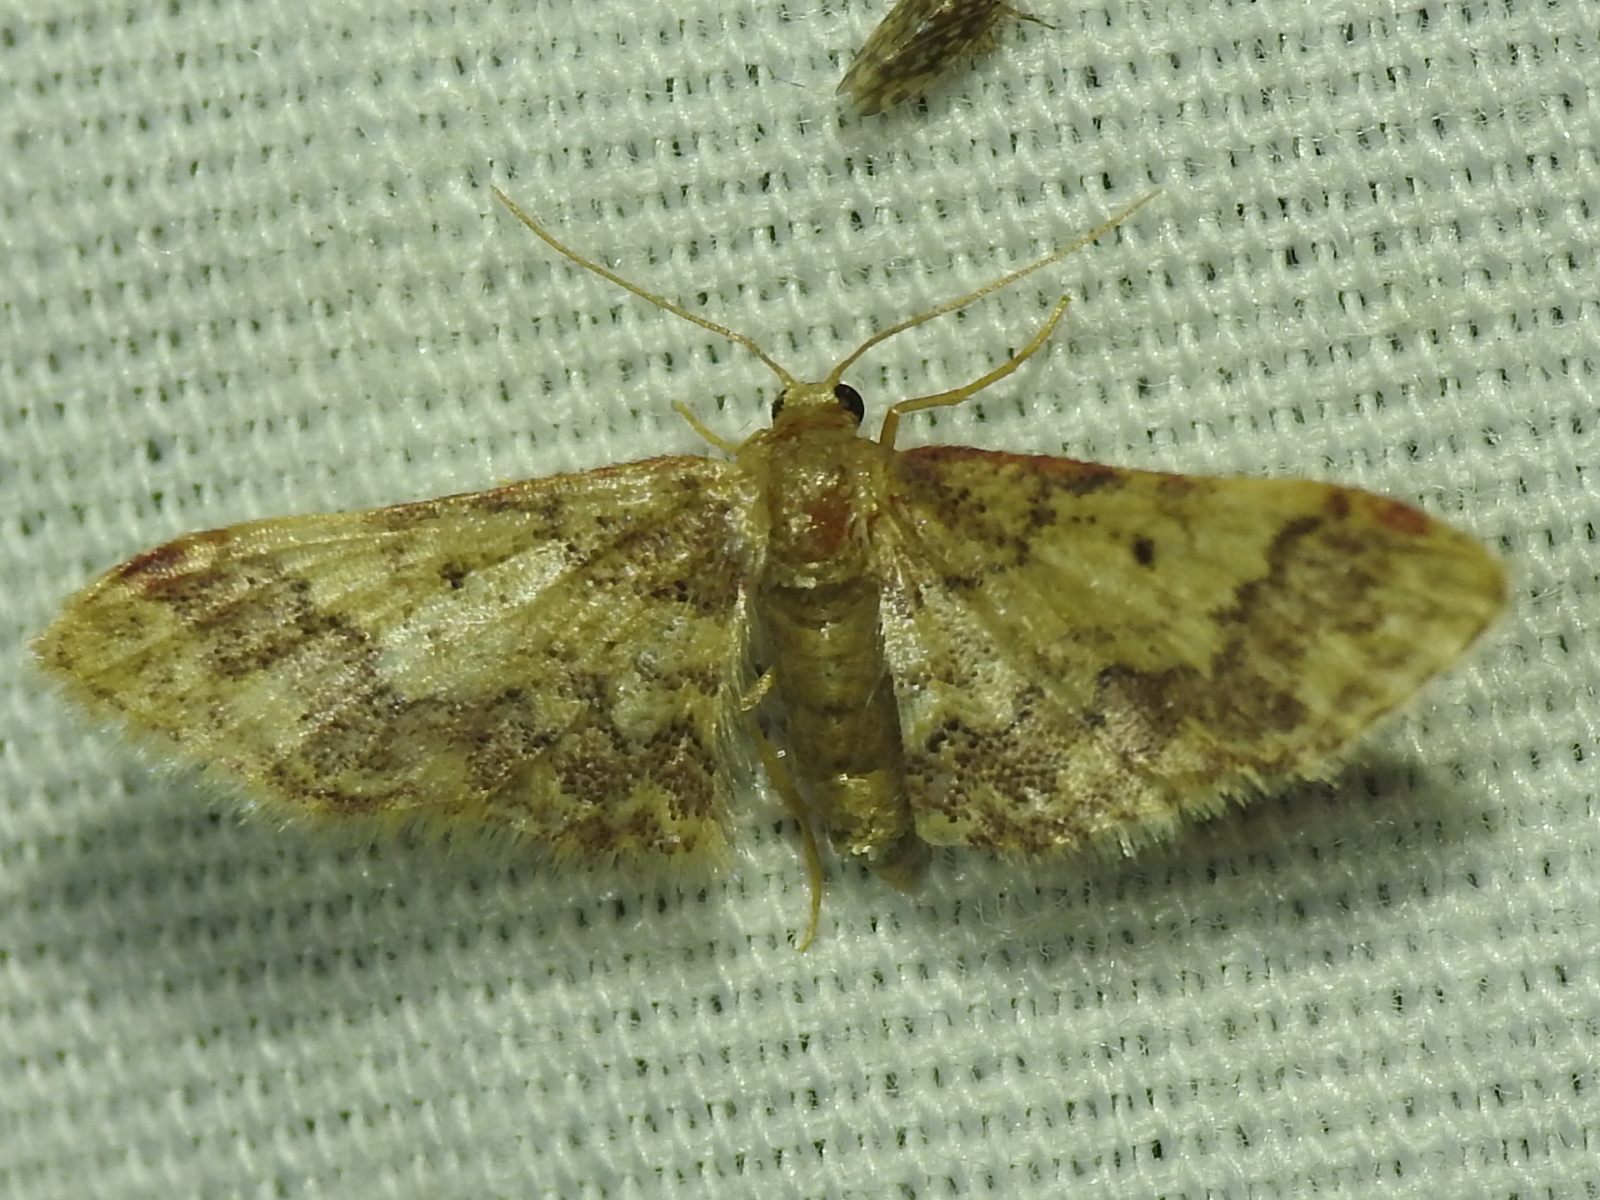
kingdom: Animalia
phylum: Arthropoda
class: Insecta
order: Lepidoptera
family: Geometridae
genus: Idaea
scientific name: Idaea furciferata
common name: Notch-winged wave
